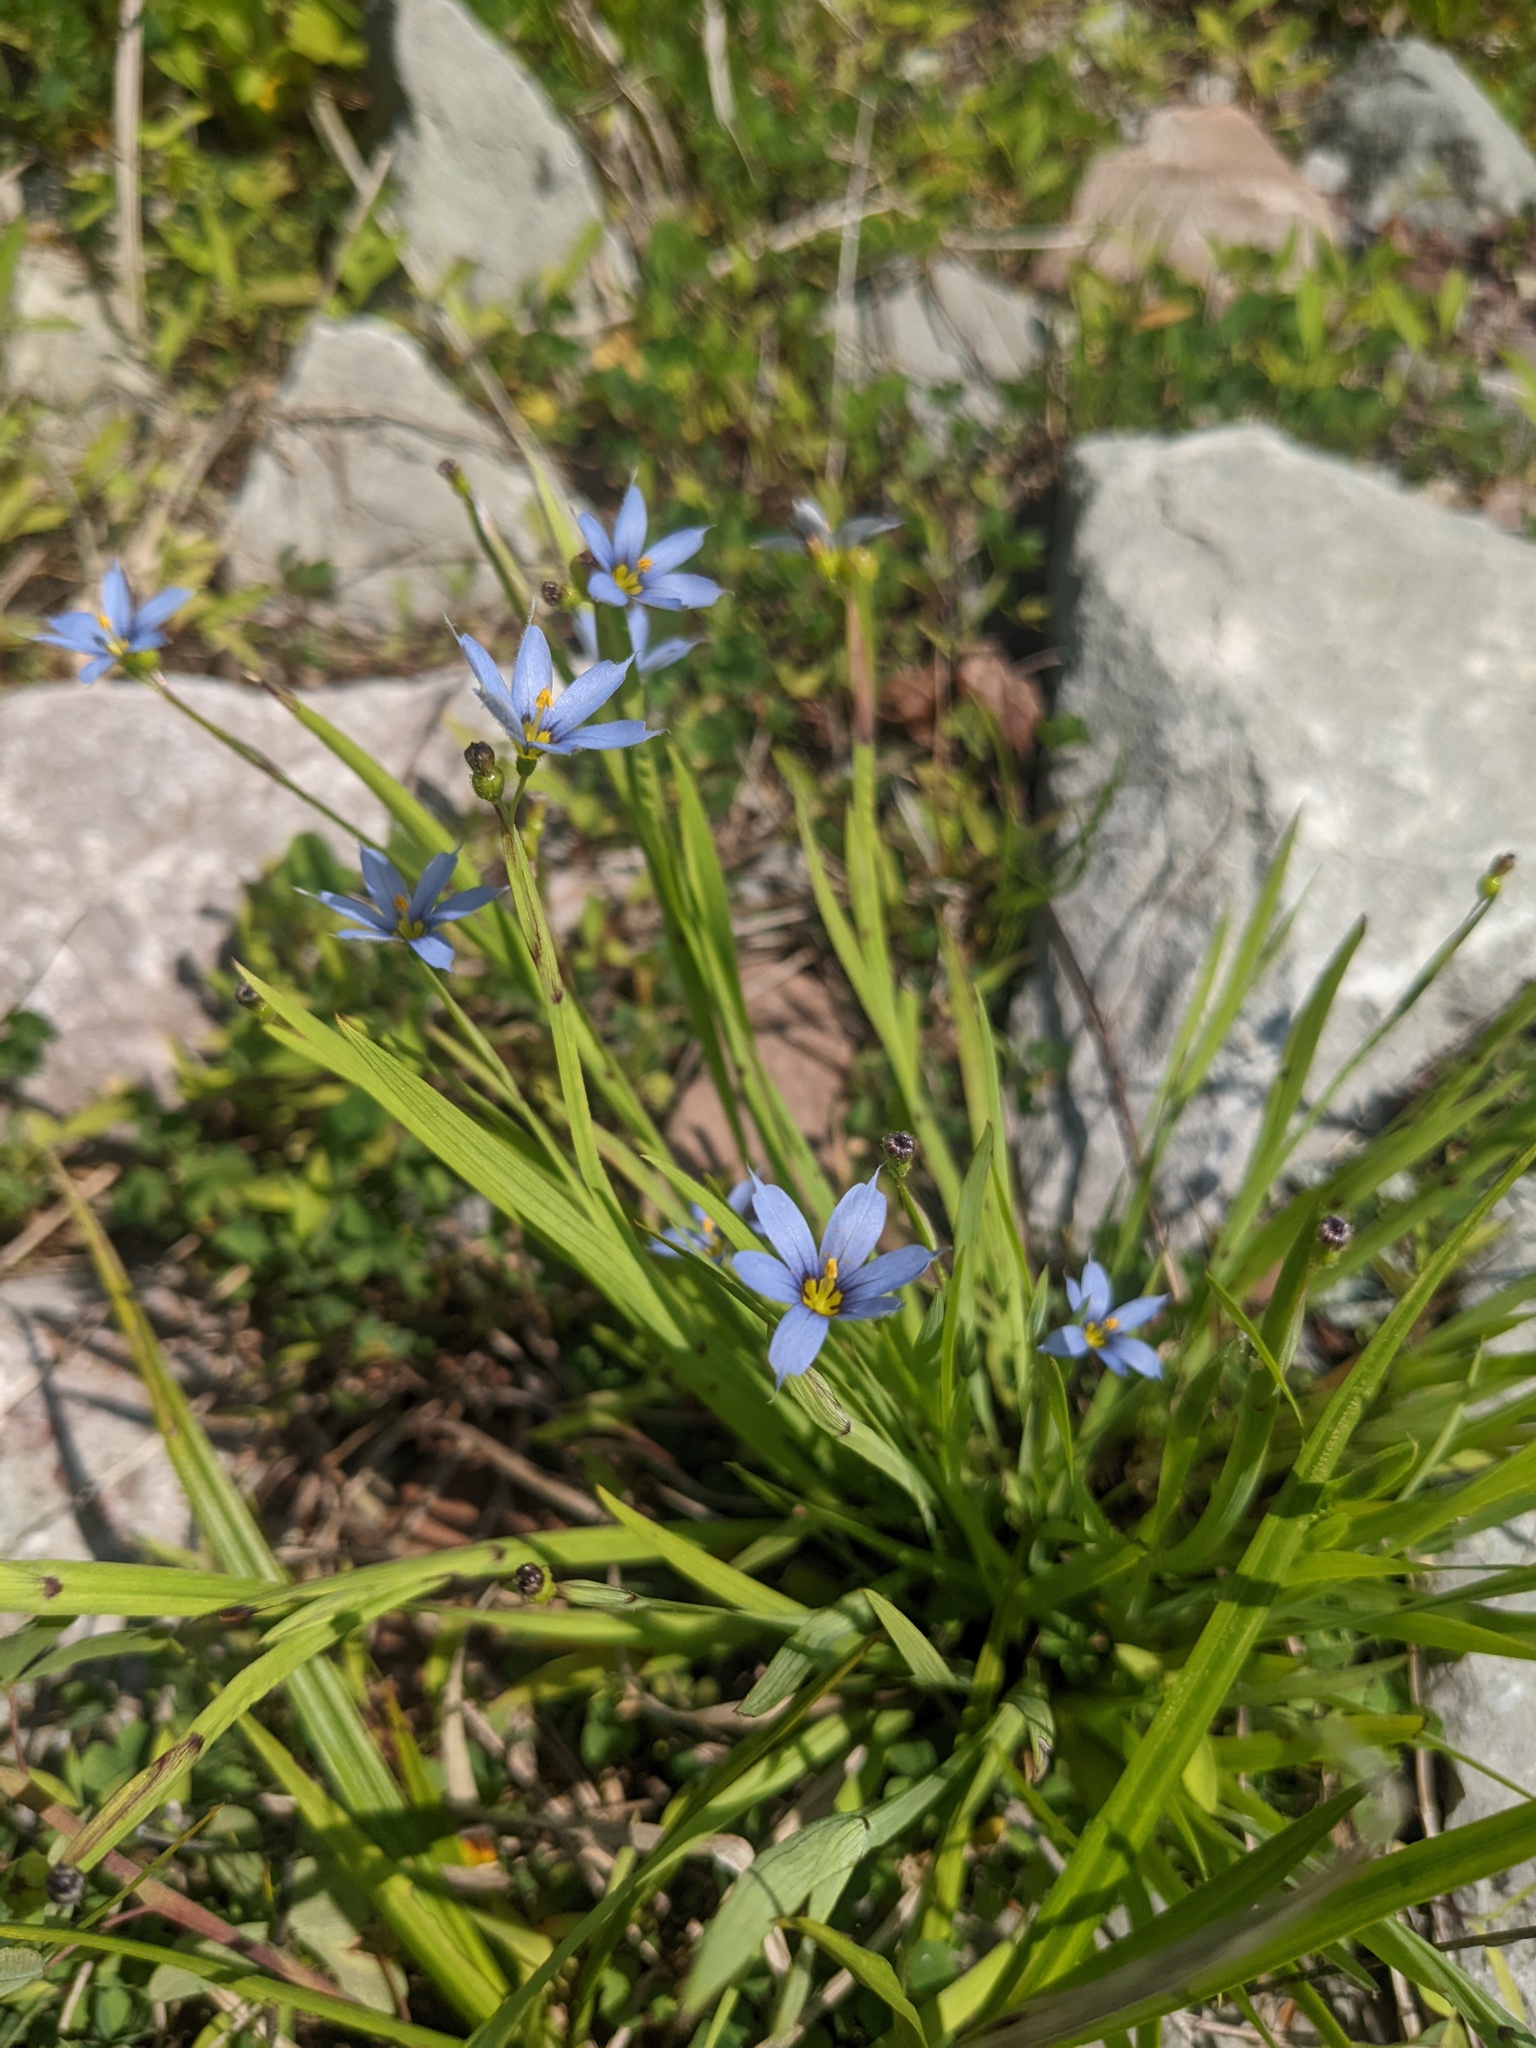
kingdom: Plantae
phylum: Tracheophyta
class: Liliopsida
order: Asparagales
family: Iridaceae
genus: Sisyrinchium
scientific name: Sisyrinchium angustifolium
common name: Narrow-leaf blue-eyed-grass
